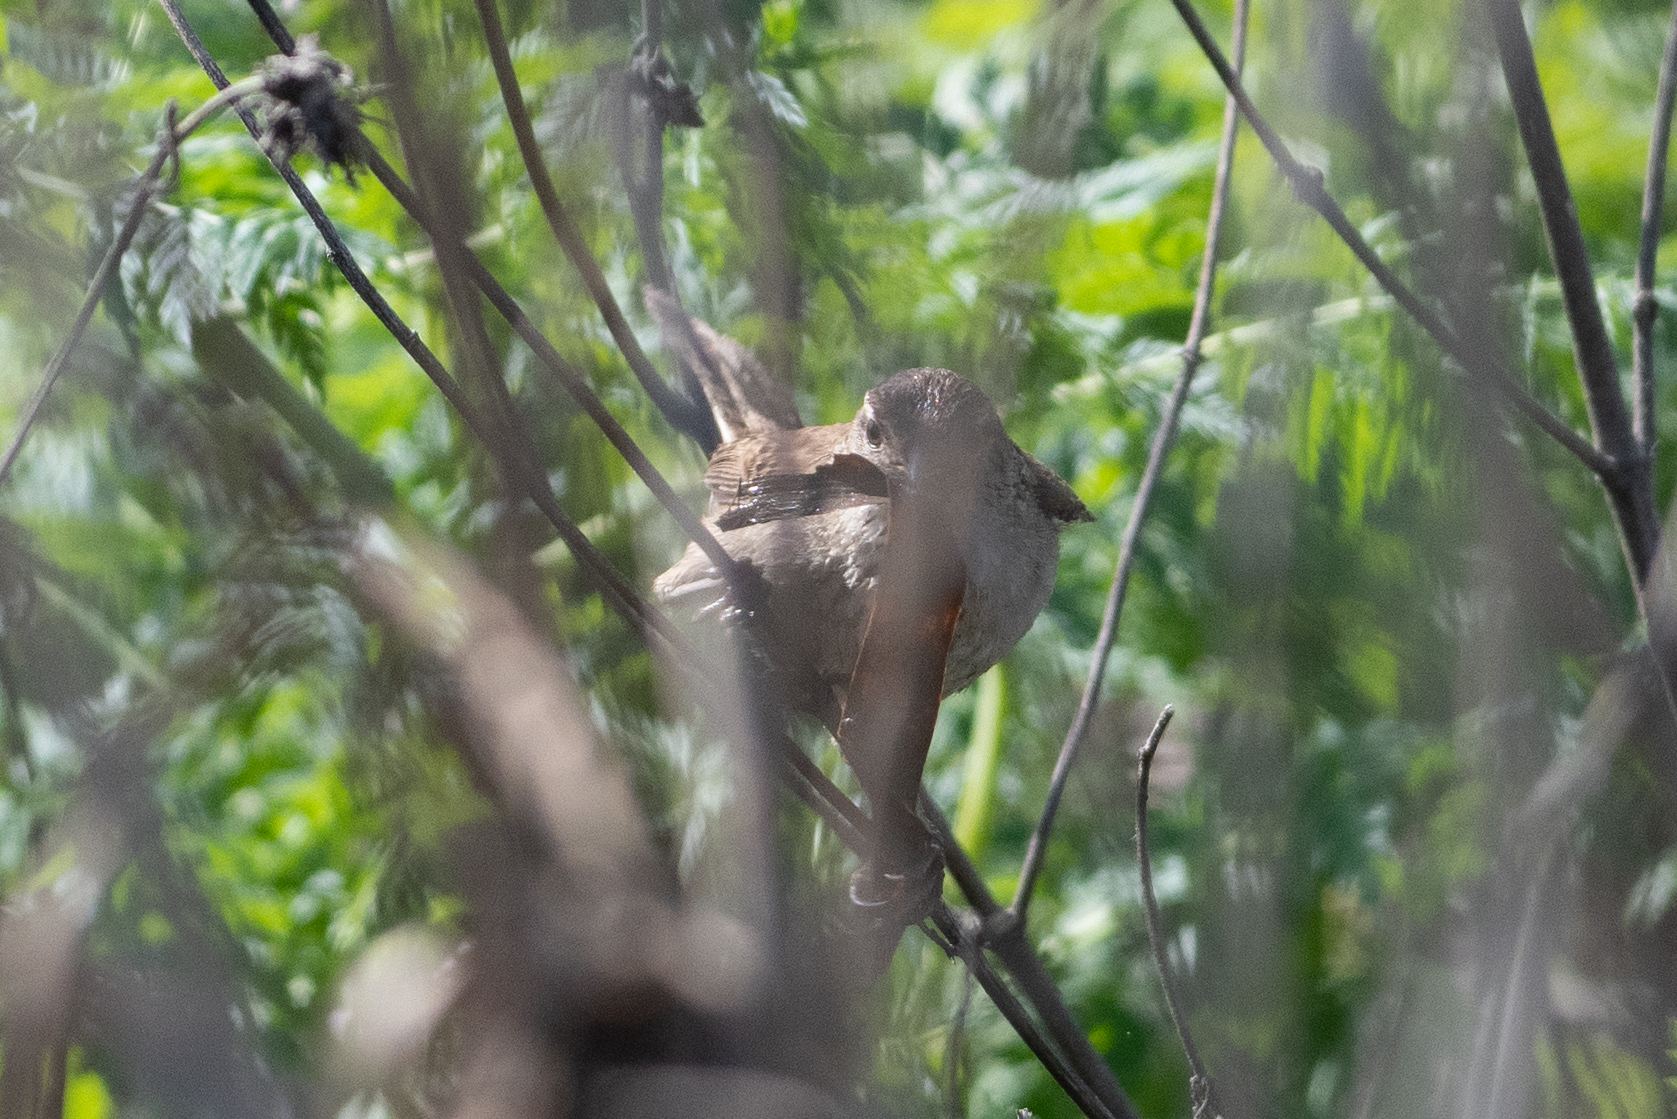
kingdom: Animalia
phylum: Chordata
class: Aves
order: Passeriformes
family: Troglodytidae
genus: Cistothorus
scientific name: Cistothorus palustris
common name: Marsh wren
